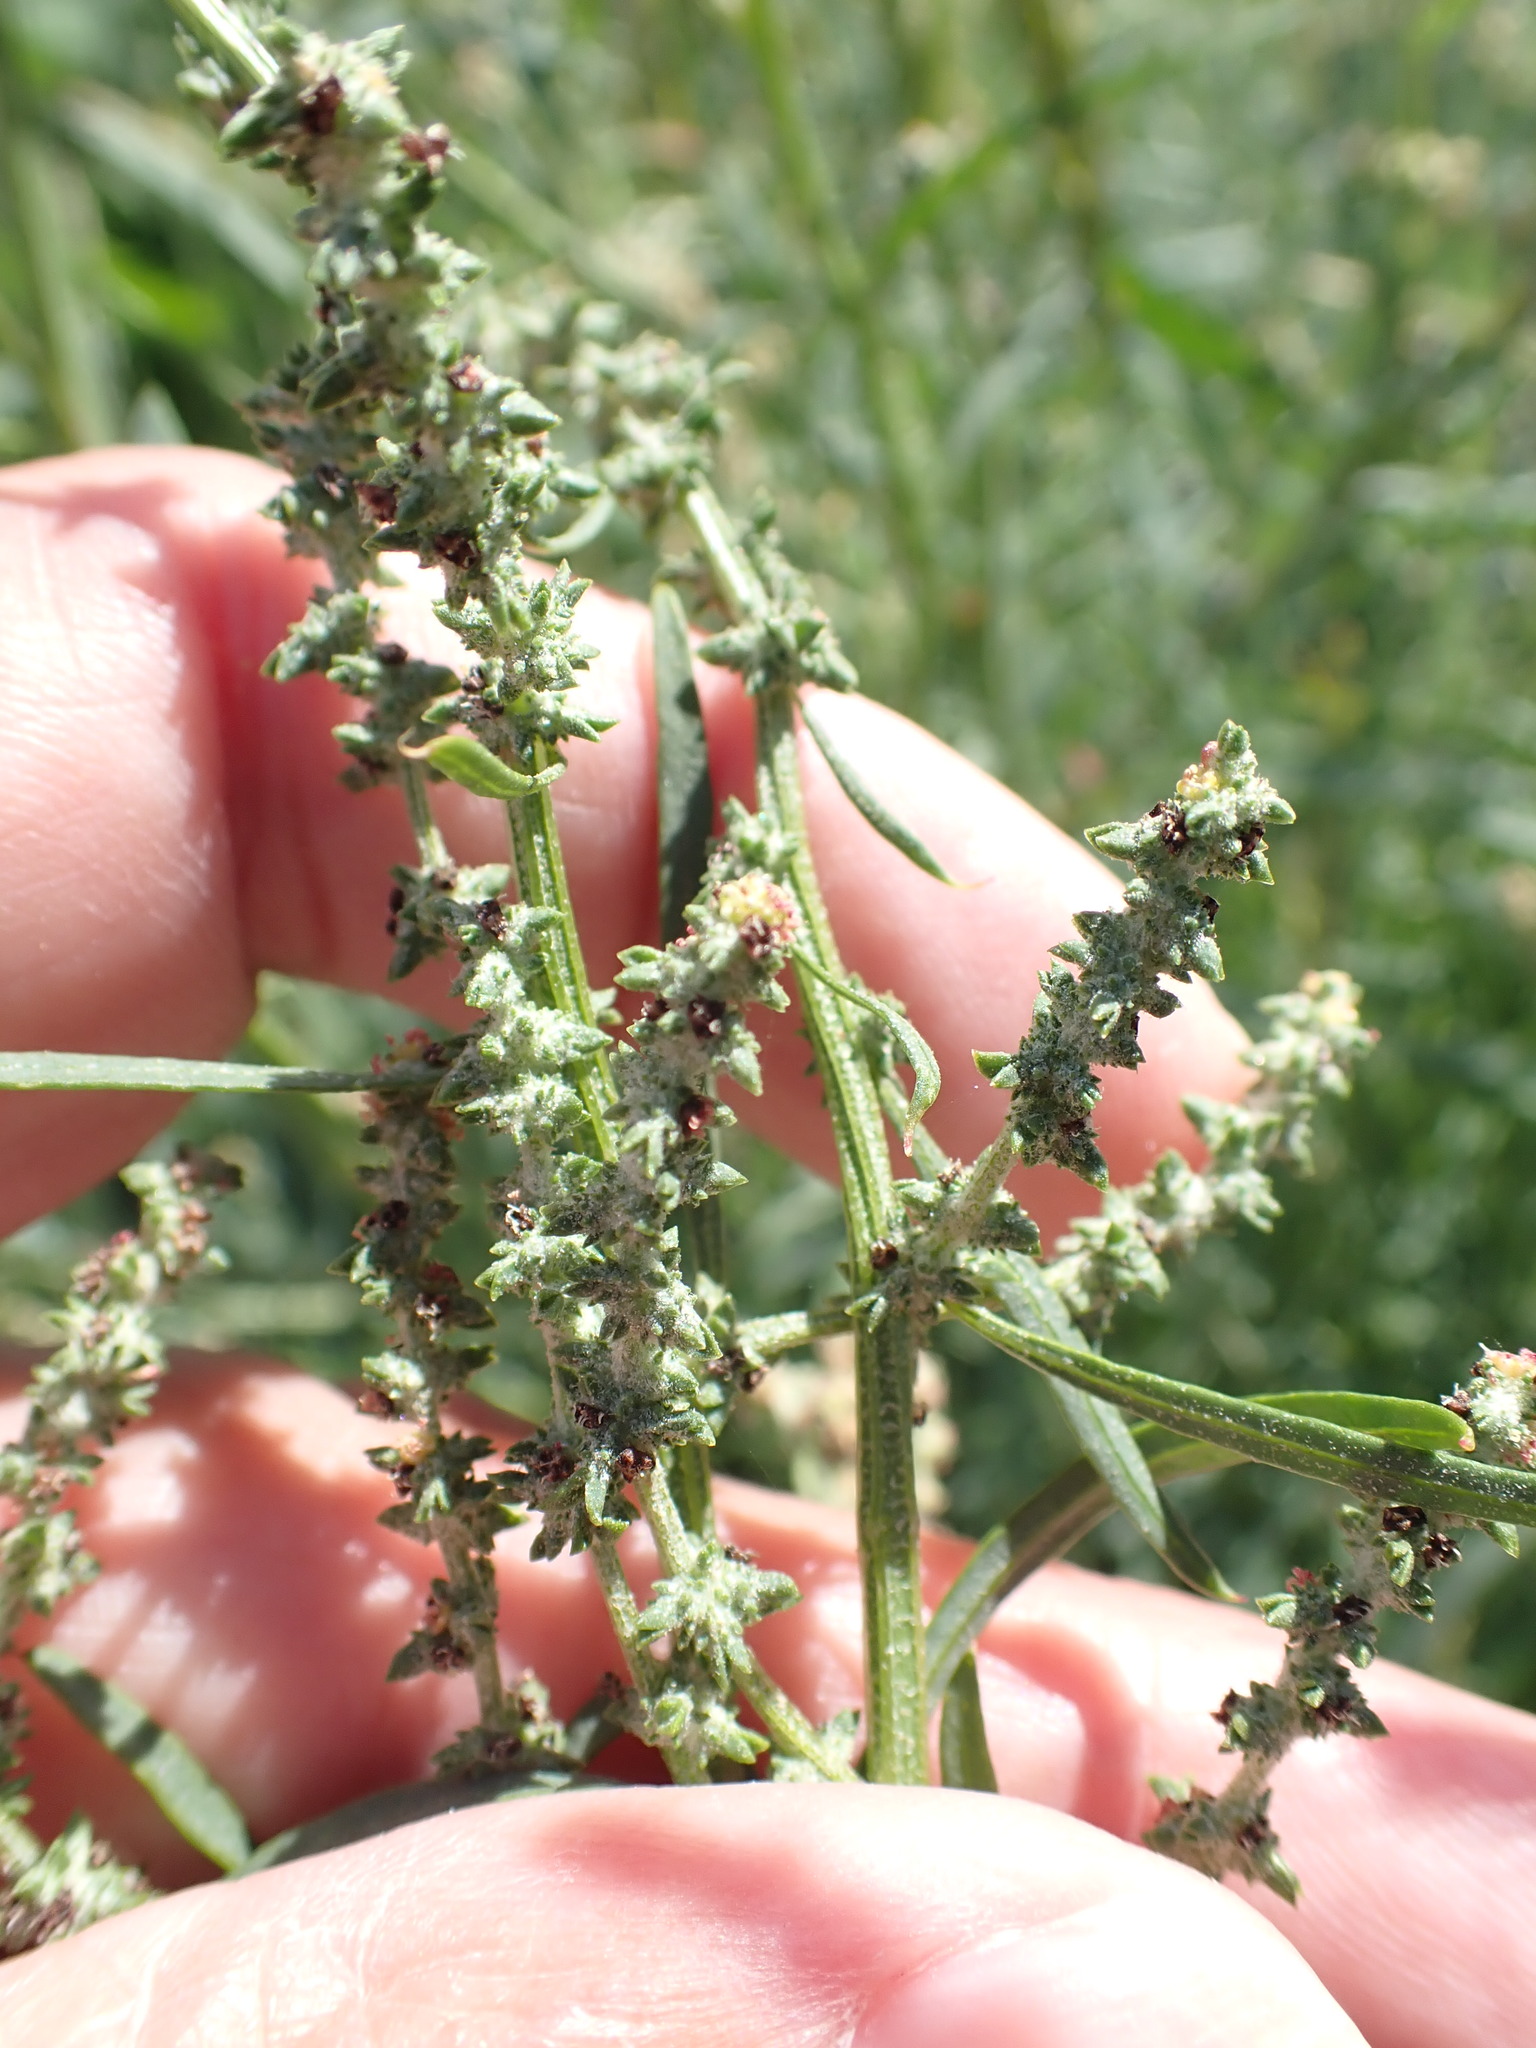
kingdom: Plantae
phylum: Tracheophyta
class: Magnoliopsida
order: Caryophyllales
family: Amaranthaceae
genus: Atriplex
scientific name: Atriplex littoralis
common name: Grass-leaved orache
